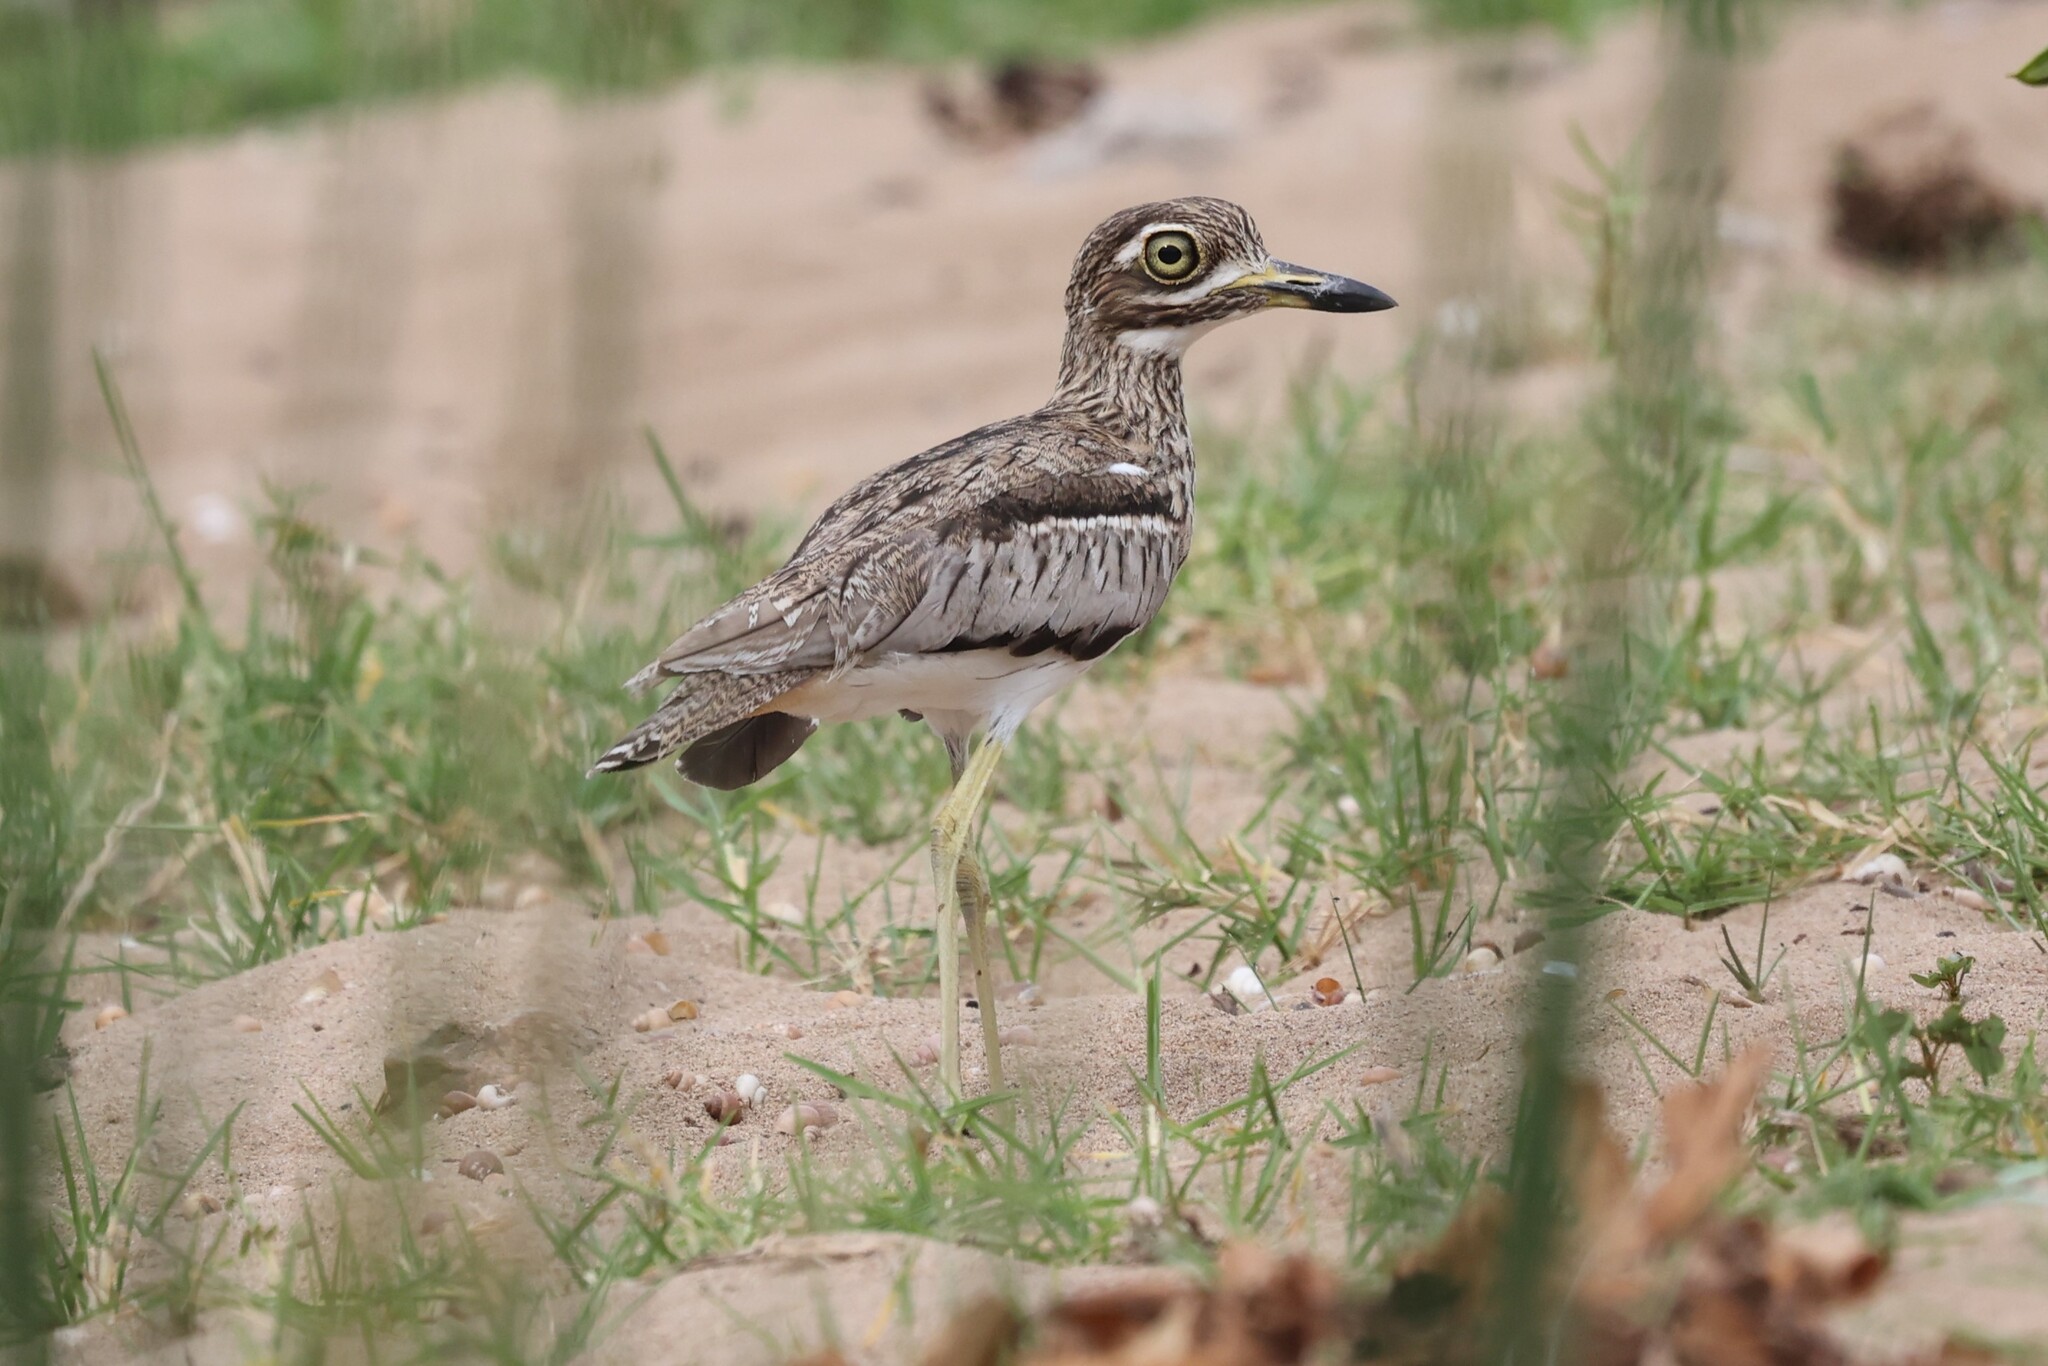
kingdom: Animalia
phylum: Chordata
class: Aves
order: Charadriiformes
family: Burhinidae
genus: Burhinus
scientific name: Burhinus vermiculatus
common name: Water thick-knee
